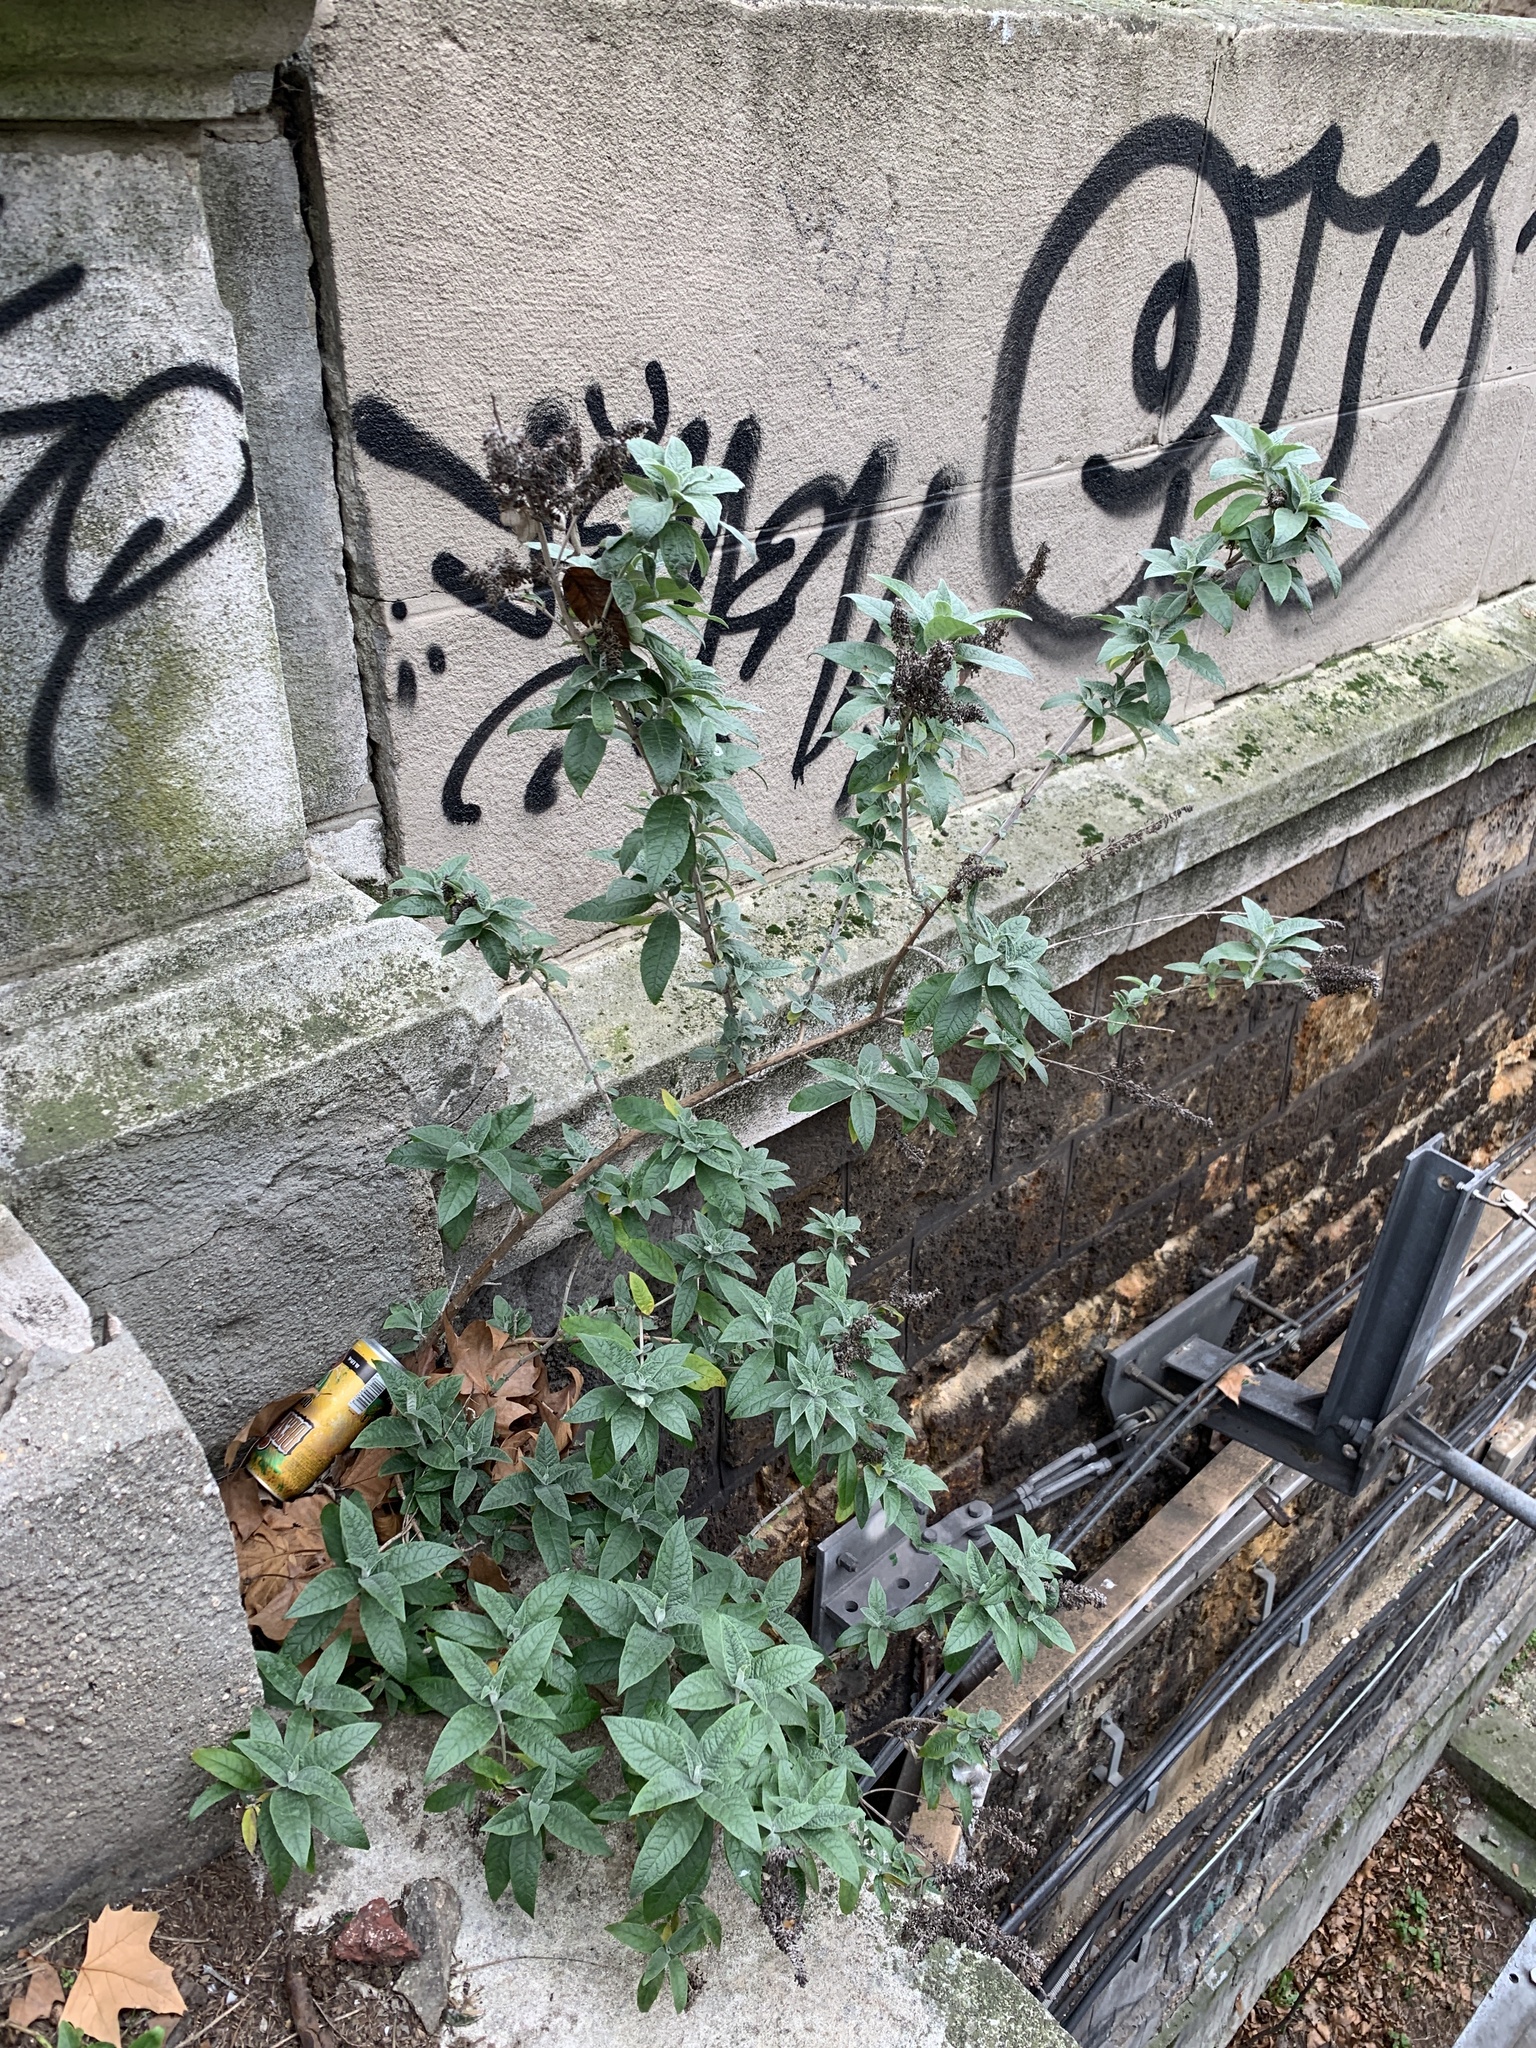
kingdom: Plantae
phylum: Tracheophyta
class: Magnoliopsida
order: Lamiales
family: Scrophulariaceae
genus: Buddleja
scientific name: Buddleja davidii
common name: Butterfly-bush
